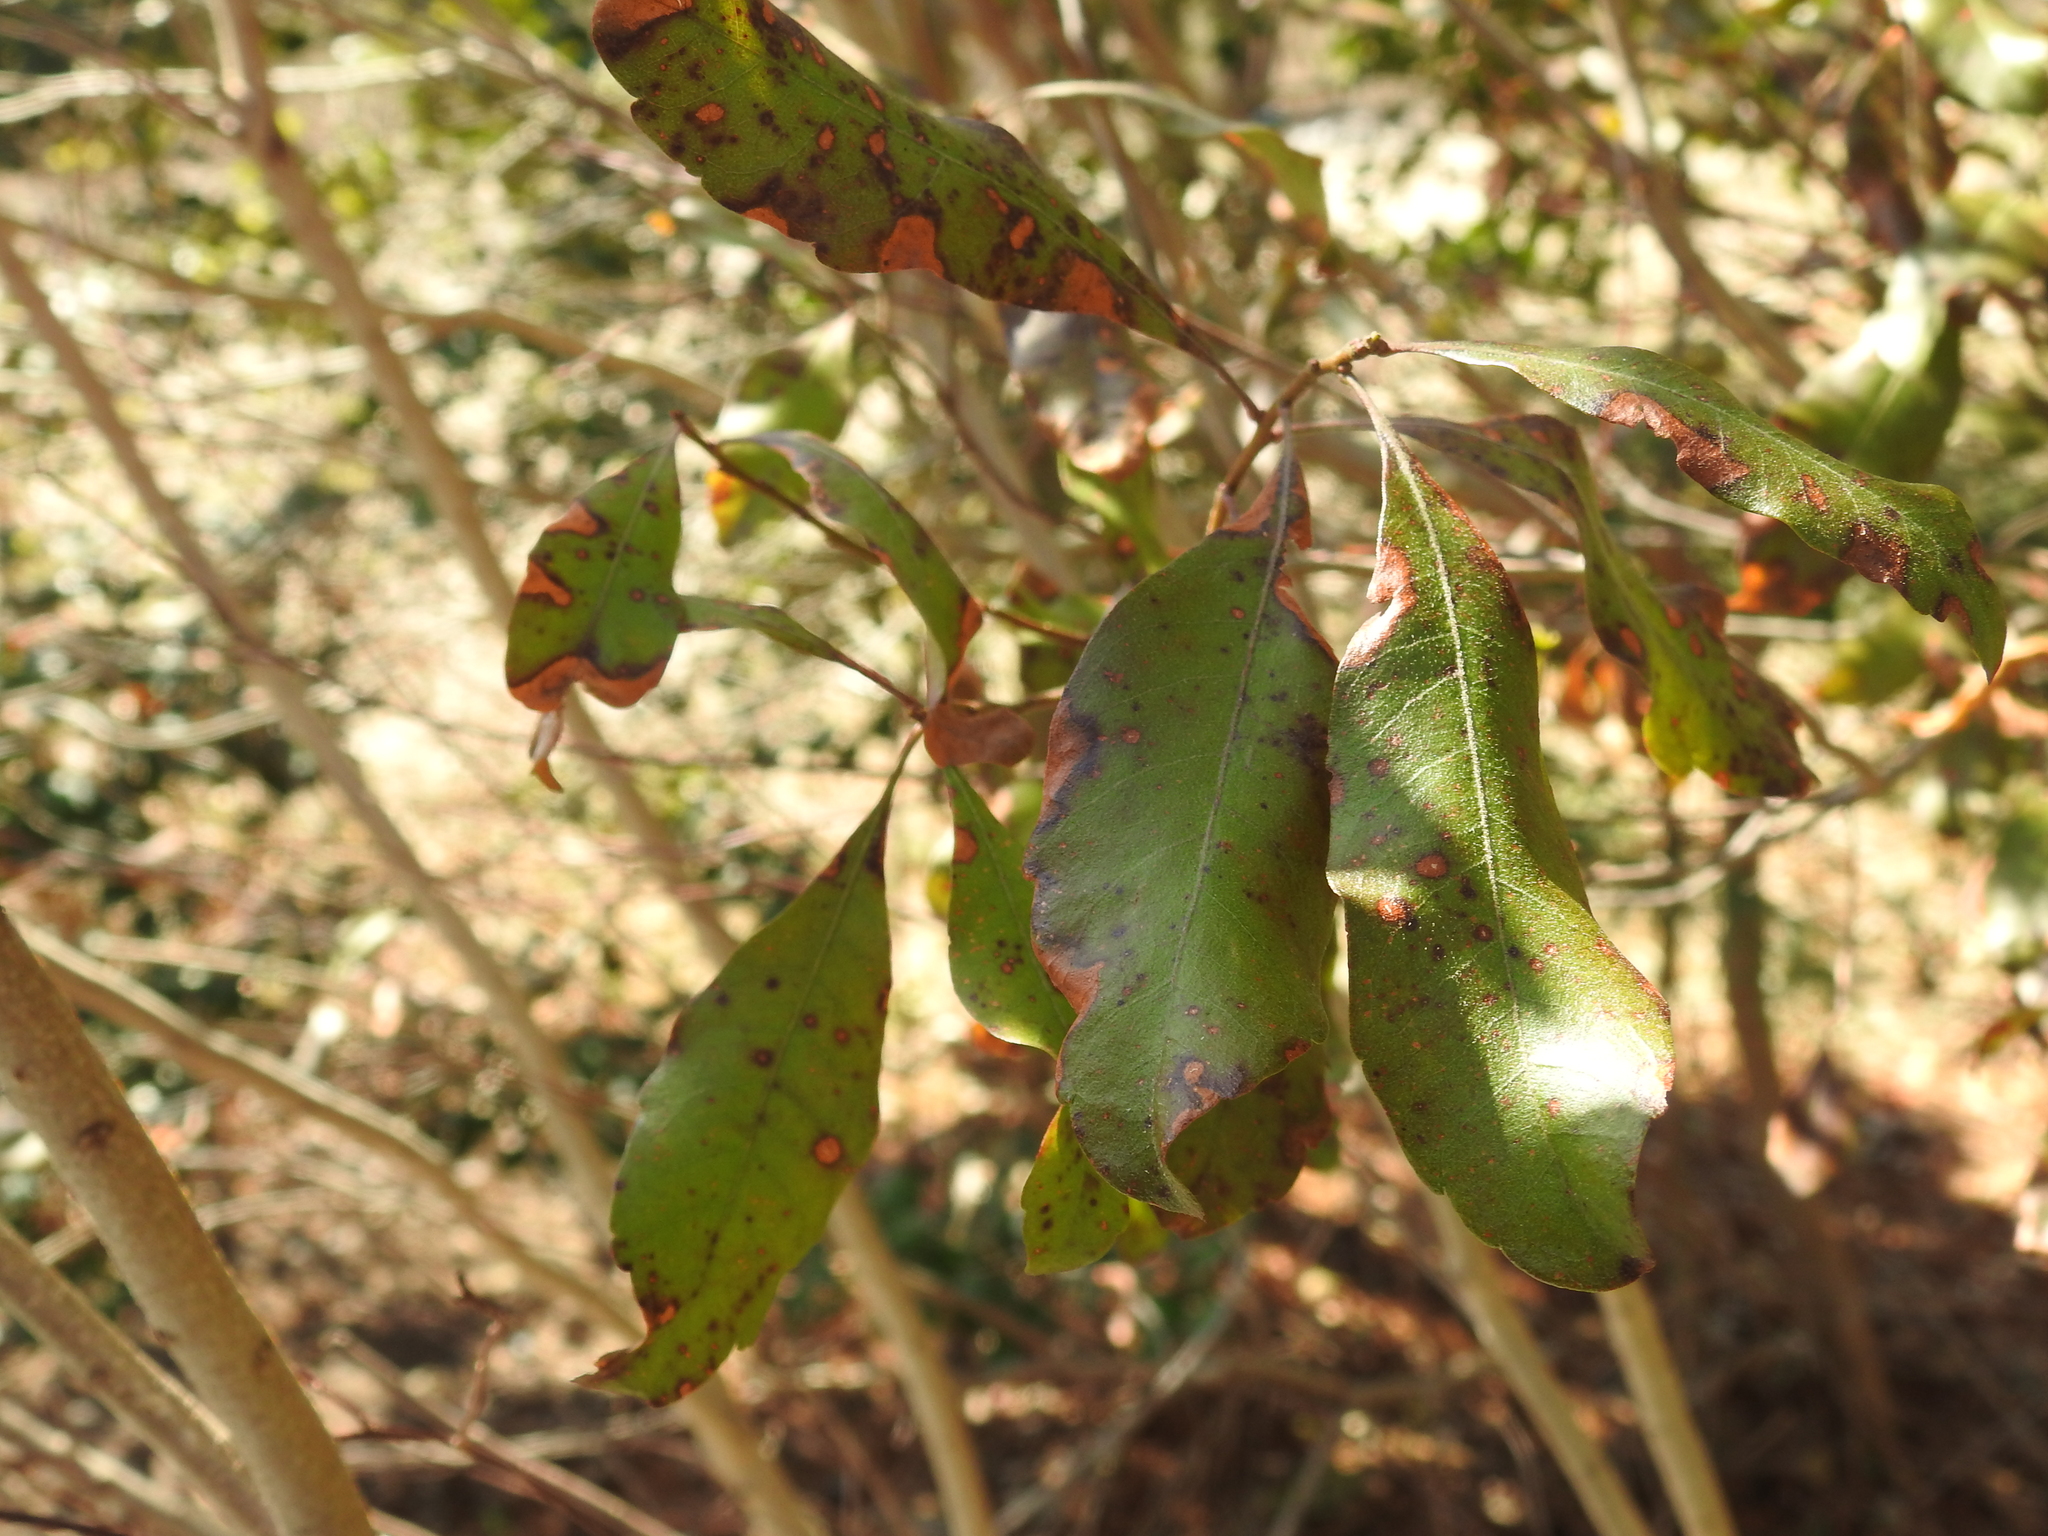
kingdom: Plantae
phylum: Tracheophyta
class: Magnoliopsida
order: Fagales
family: Myricaceae
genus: Morella
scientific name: Morella pensylvanica
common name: Northern bayberry
